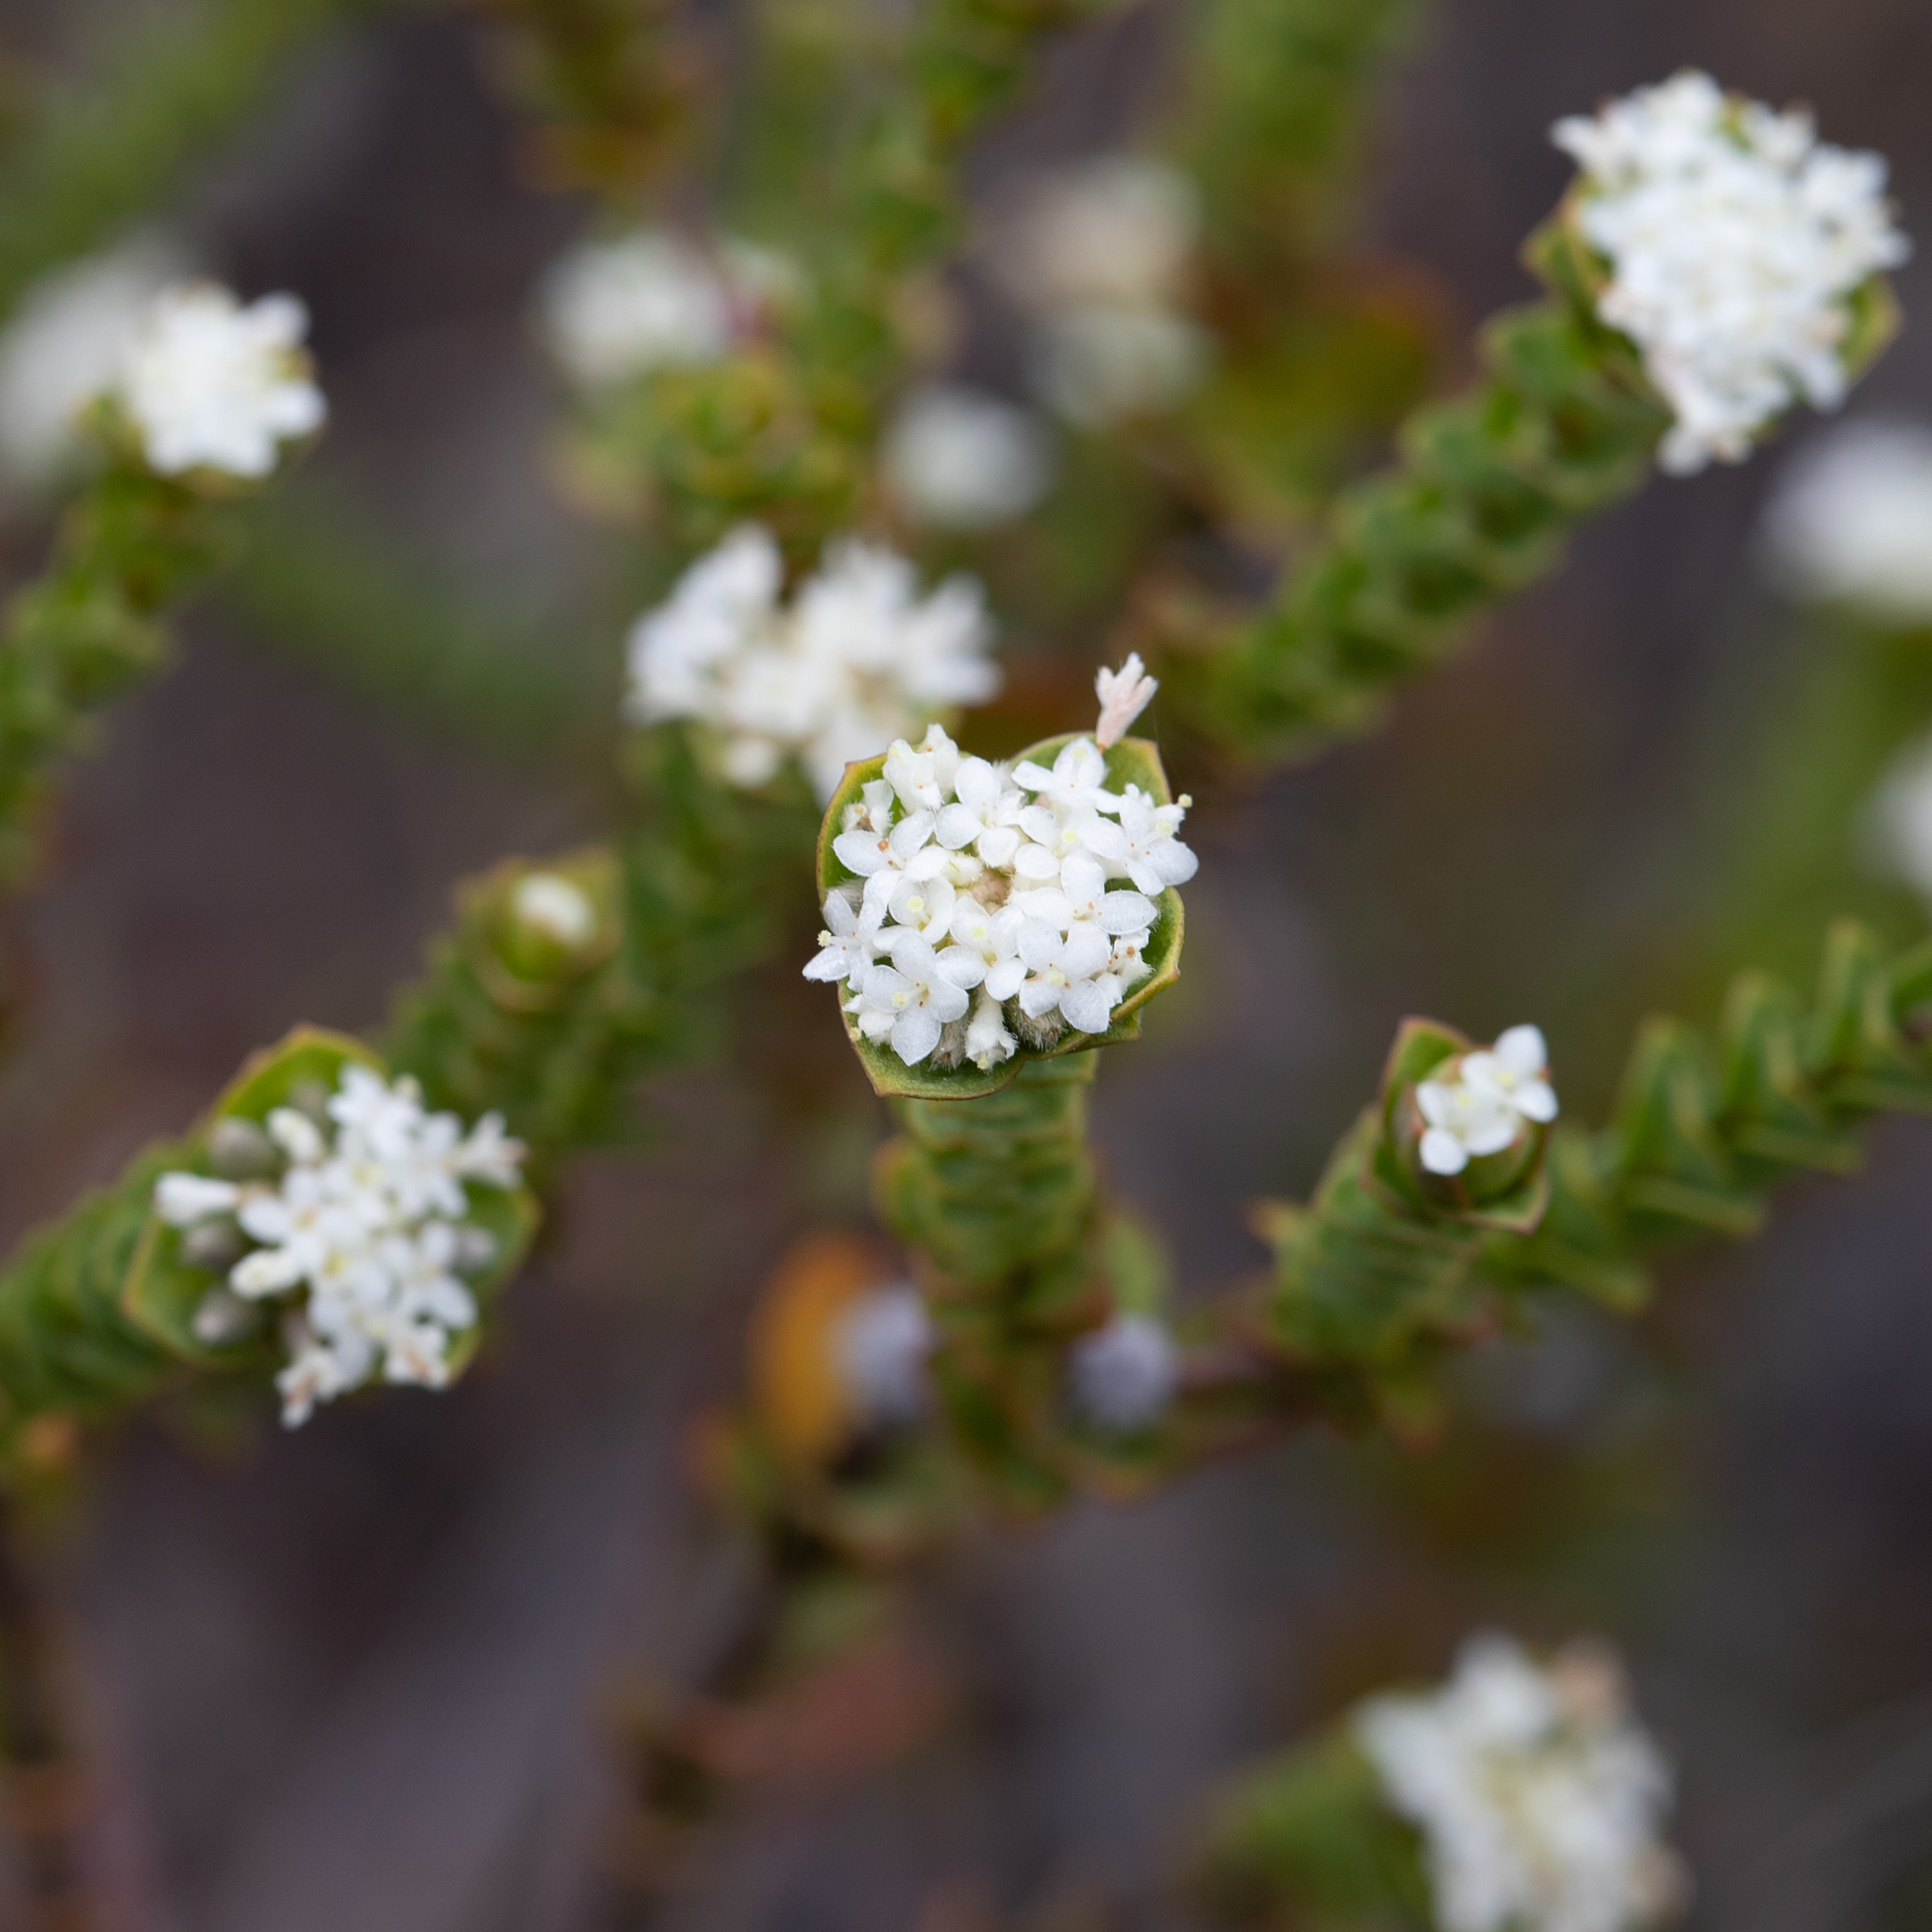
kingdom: Plantae
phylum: Tracheophyta
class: Magnoliopsida
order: Malvales
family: Thymelaeaceae
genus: Pimelea
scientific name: Pimelea flava
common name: Yellow riceflower
